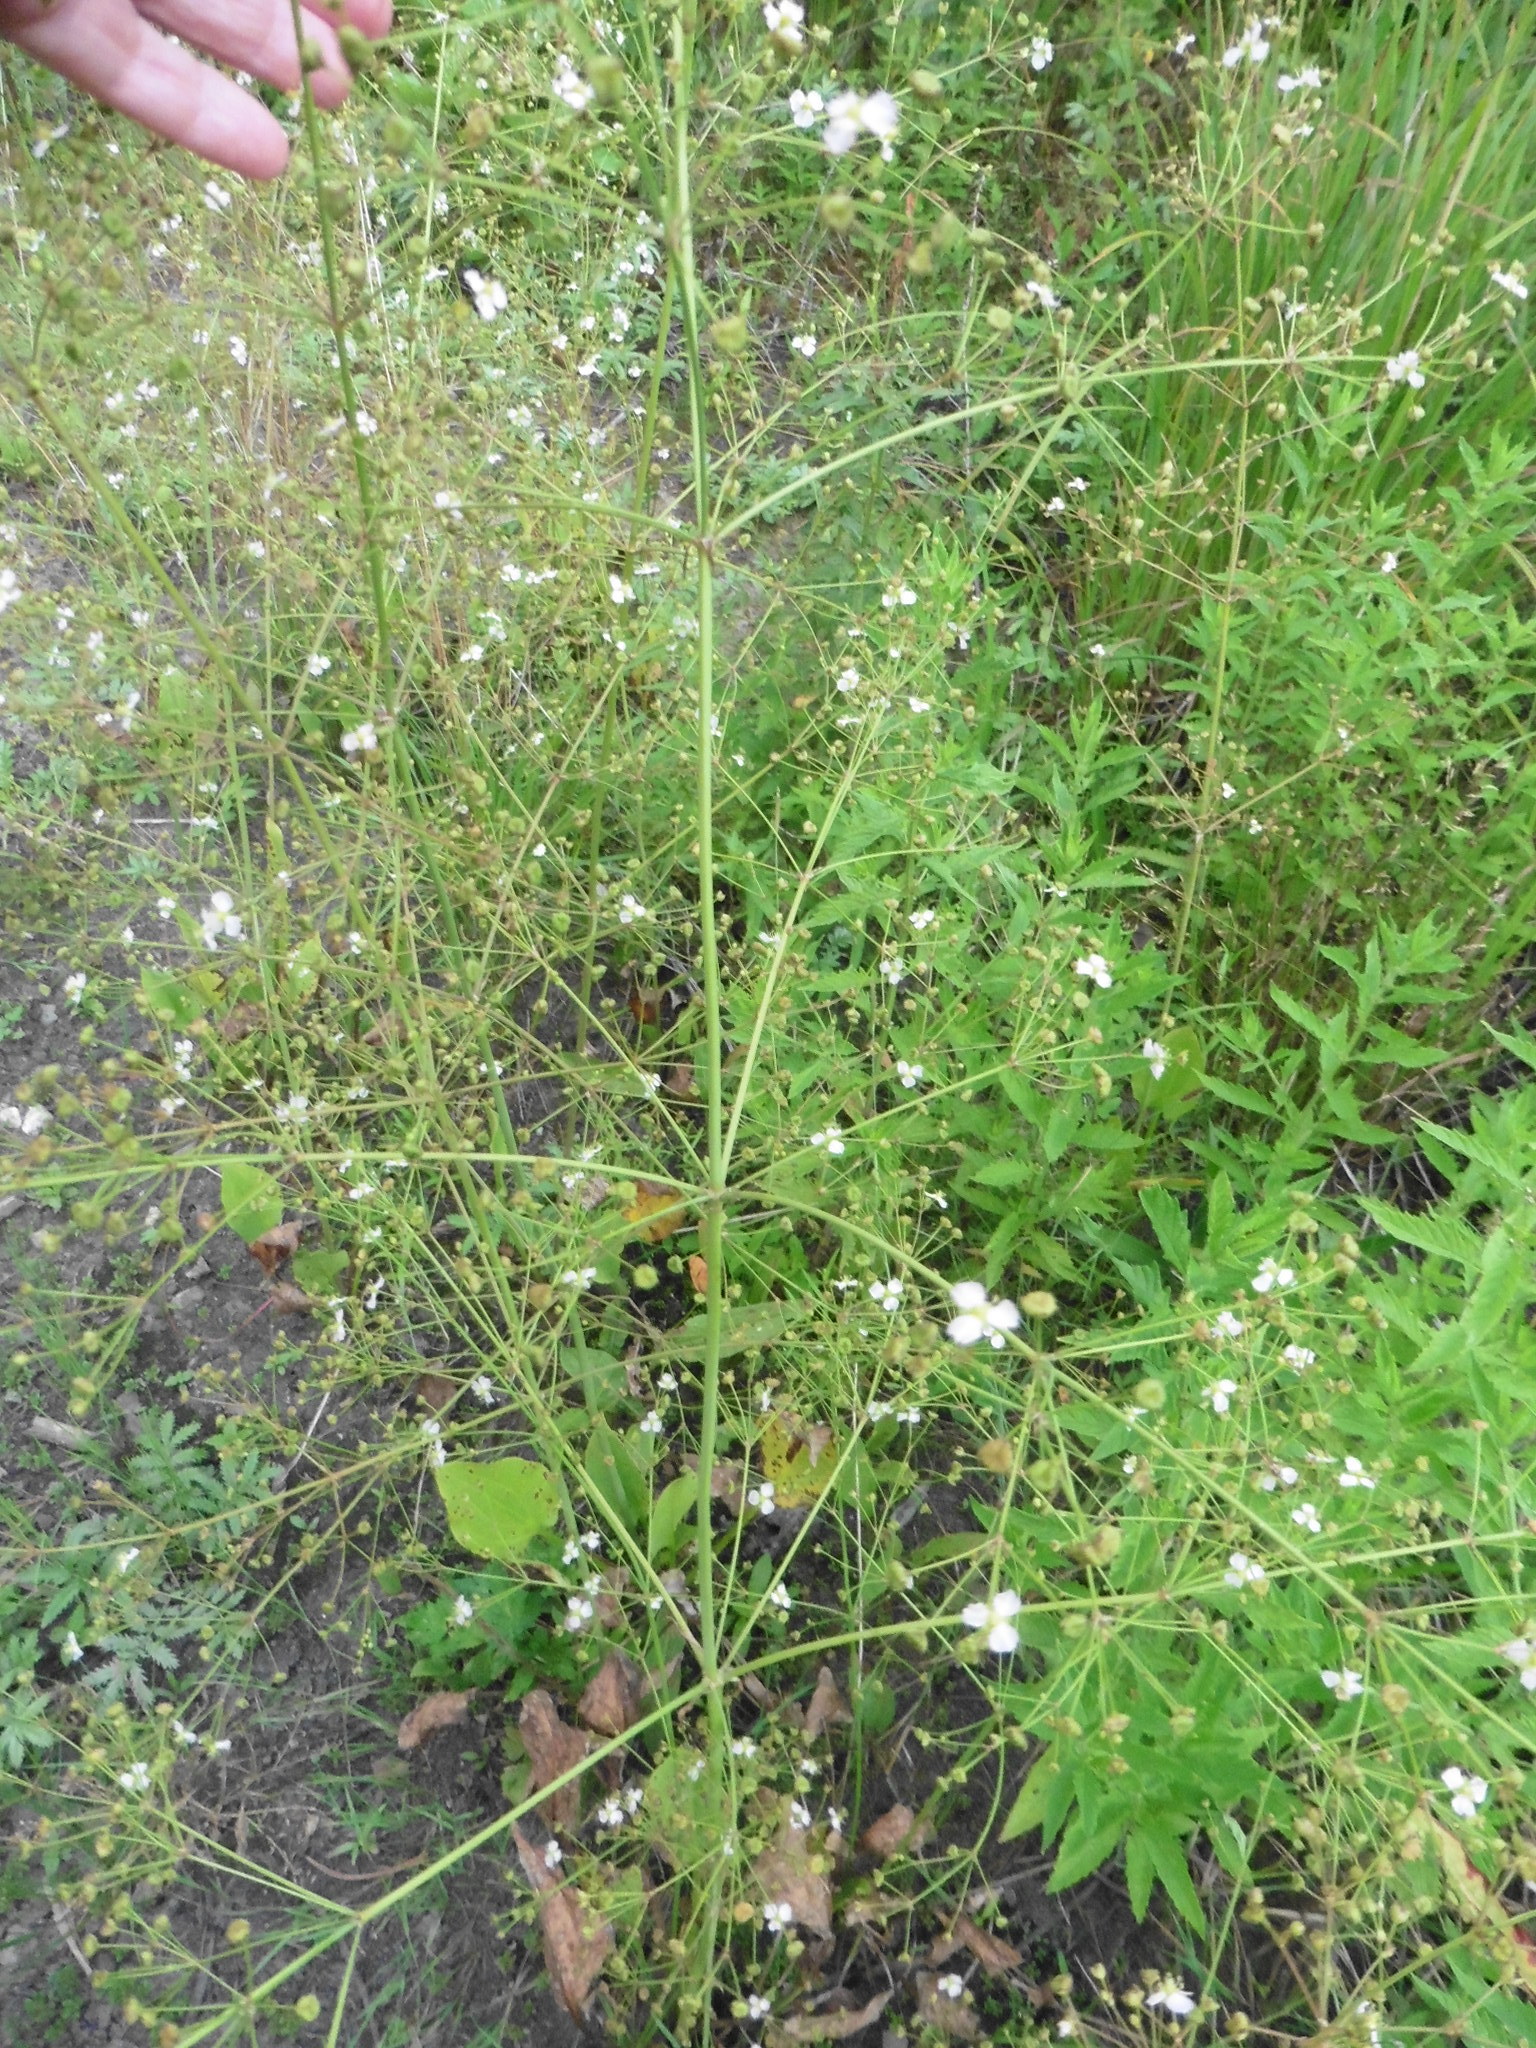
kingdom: Plantae
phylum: Tracheophyta
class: Liliopsida
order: Alismatales
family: Alismataceae
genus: Alisma
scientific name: Alisma plantago-aquatica
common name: Water-plantain
